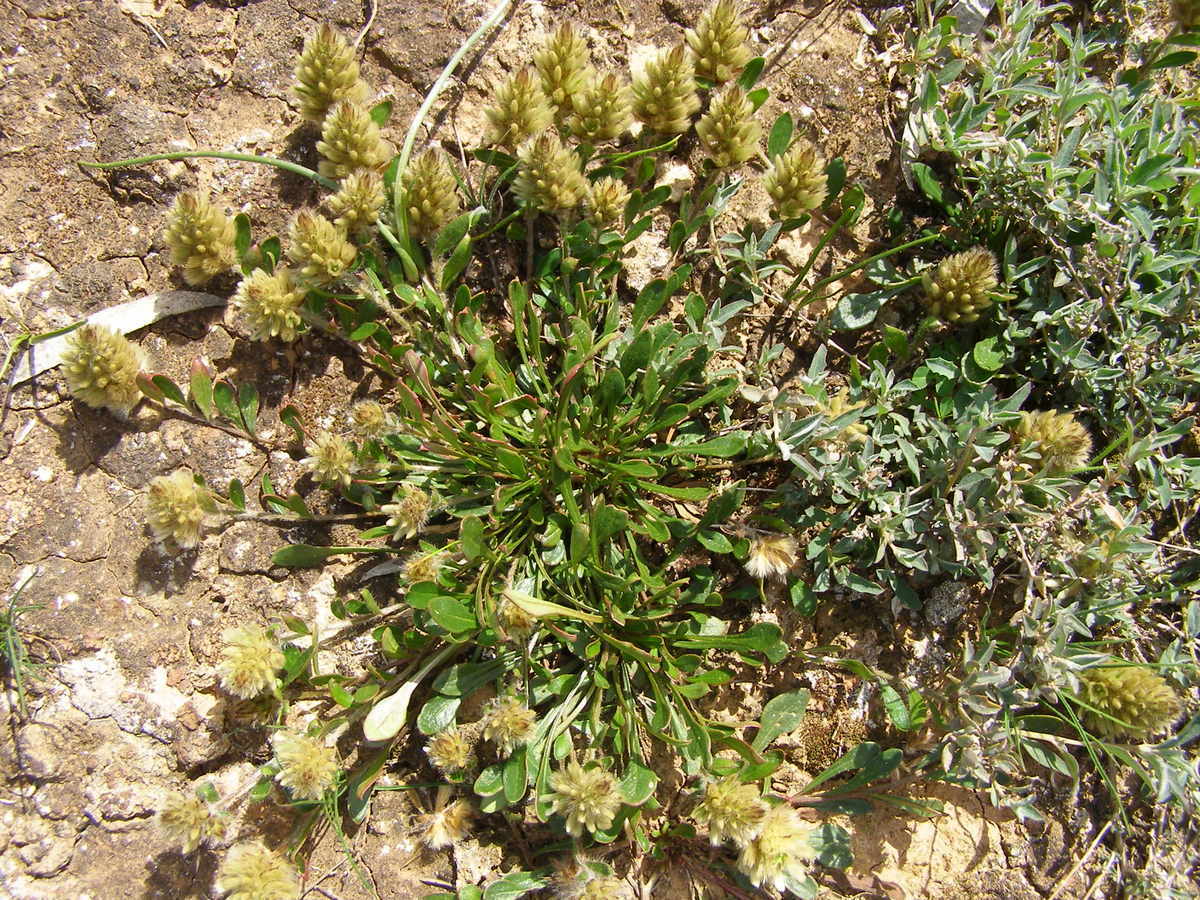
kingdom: Plantae
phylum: Tracheophyta
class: Magnoliopsida
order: Caryophyllales
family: Amaranthaceae
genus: Ptilotus
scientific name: Ptilotus spathulatus
